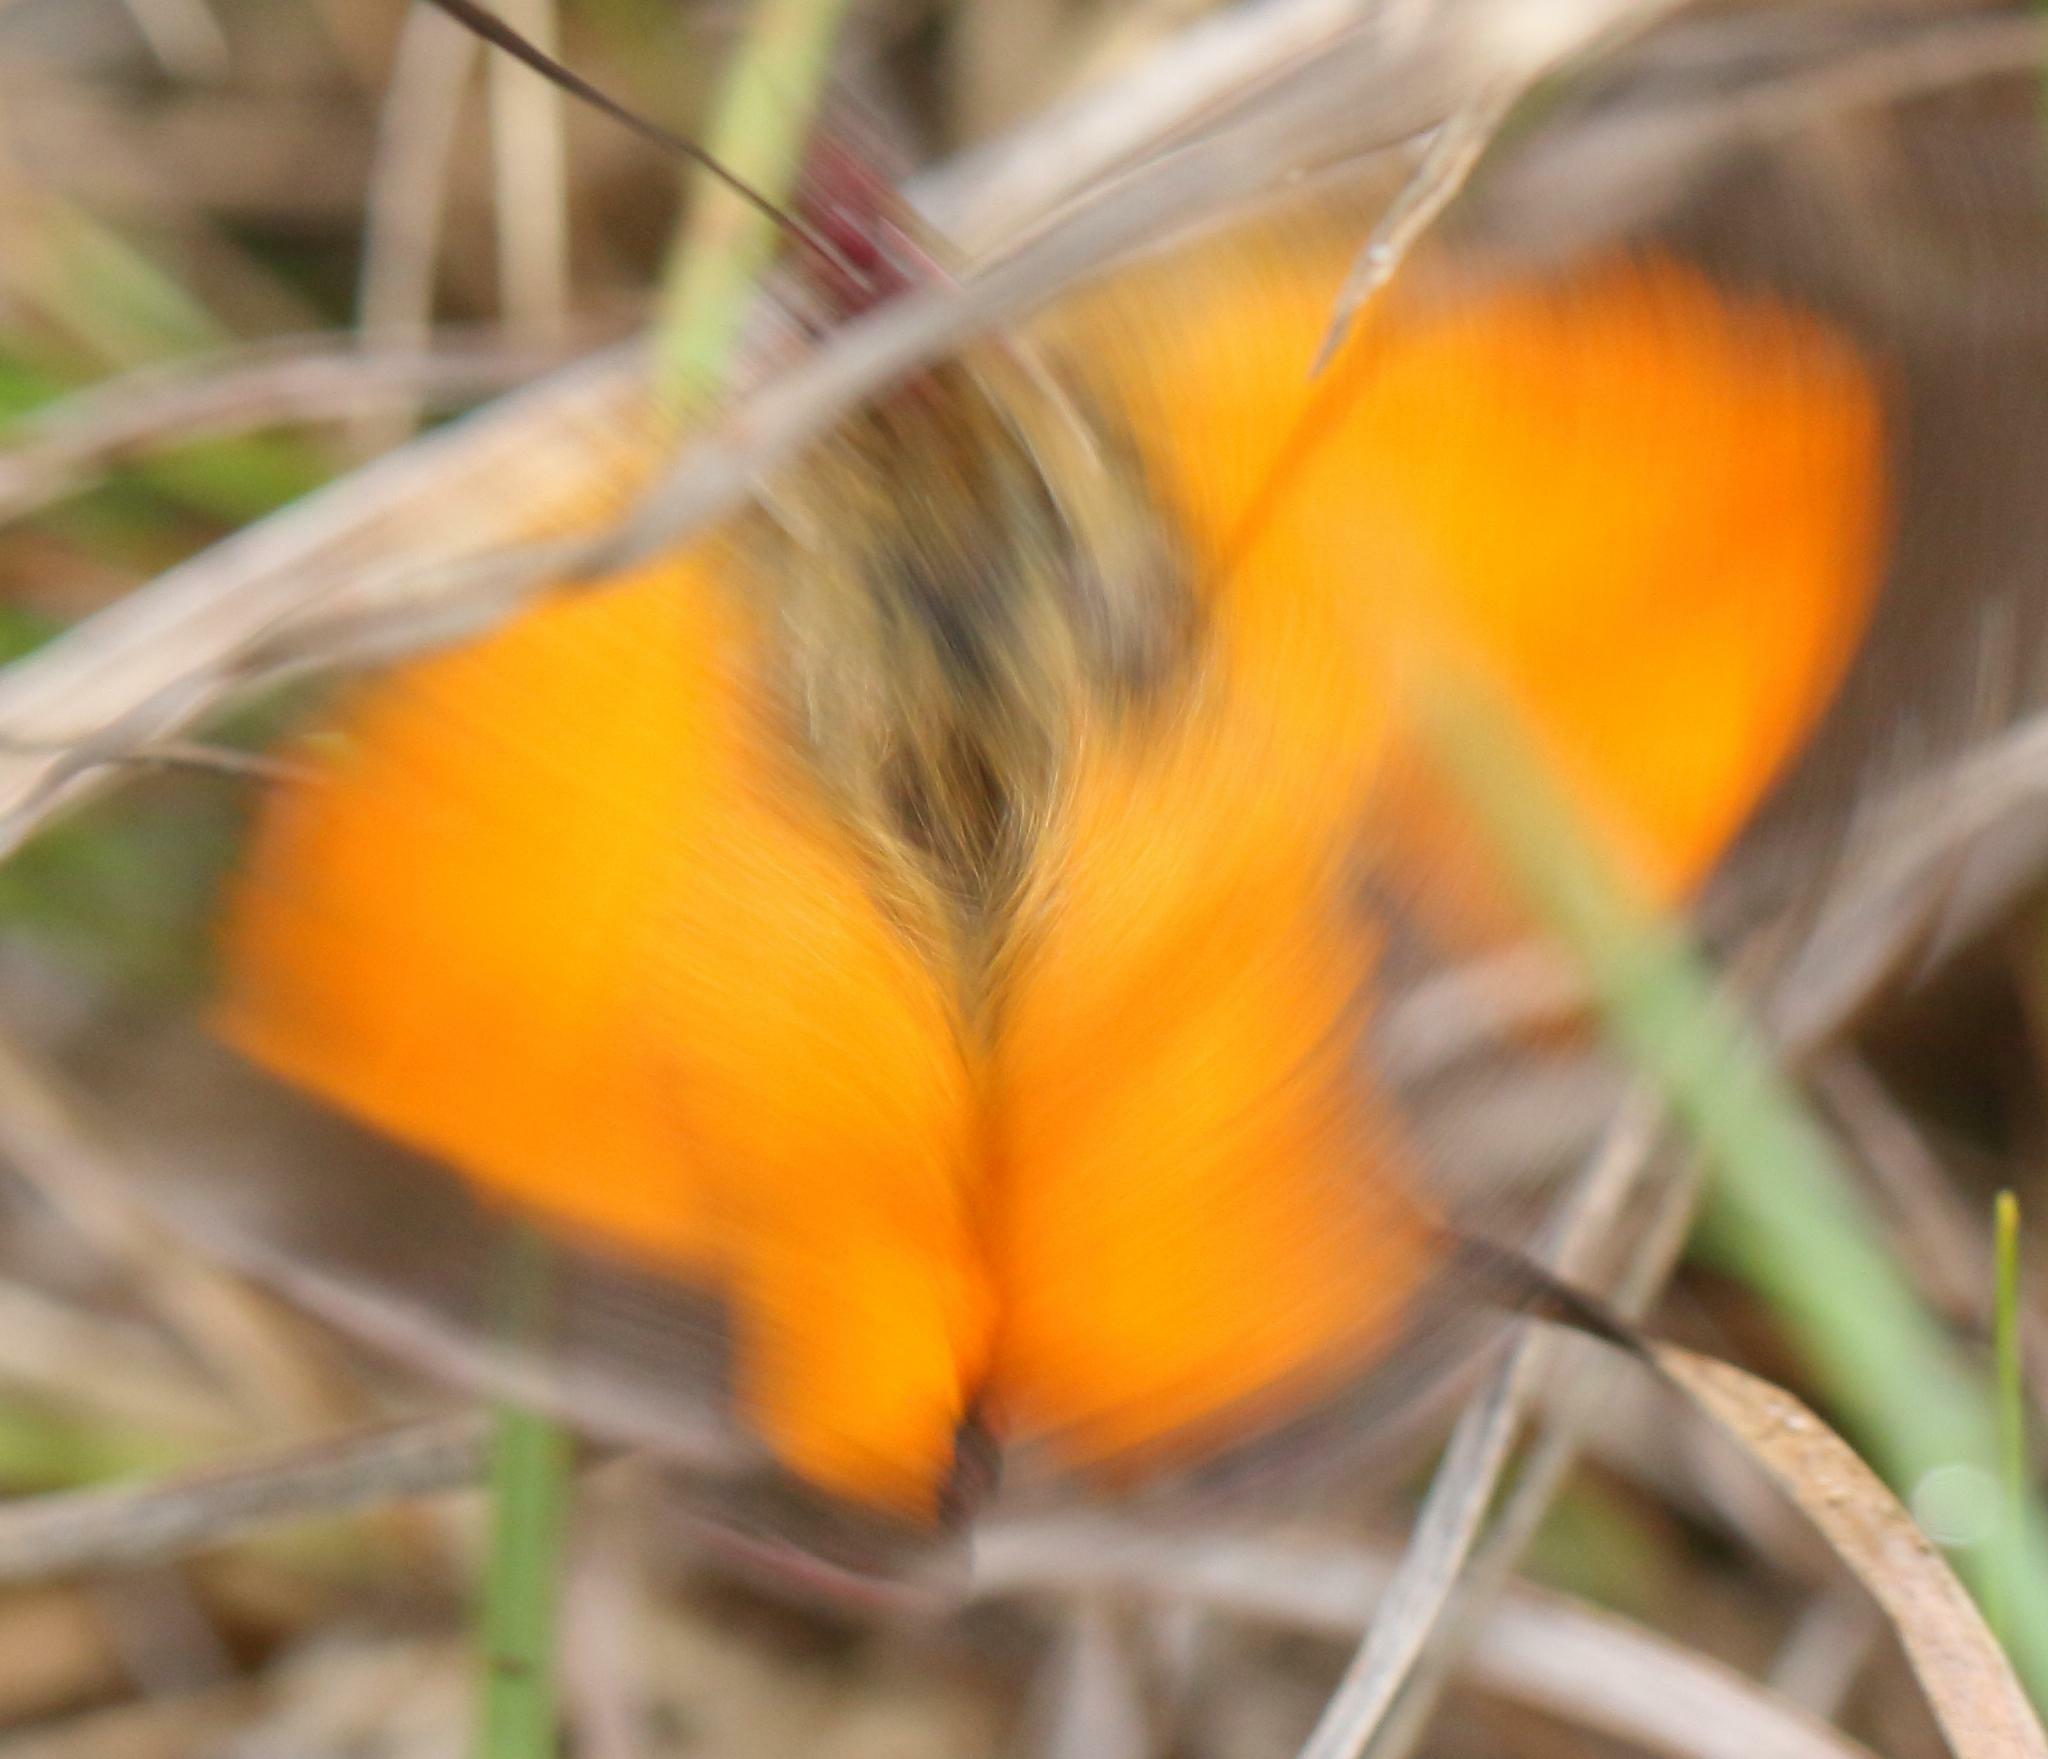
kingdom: Animalia
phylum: Arthropoda
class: Insecta
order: Lepidoptera
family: Lycaenidae
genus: Aloeides
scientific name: Aloeides penningtoni
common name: Pennington's copper
